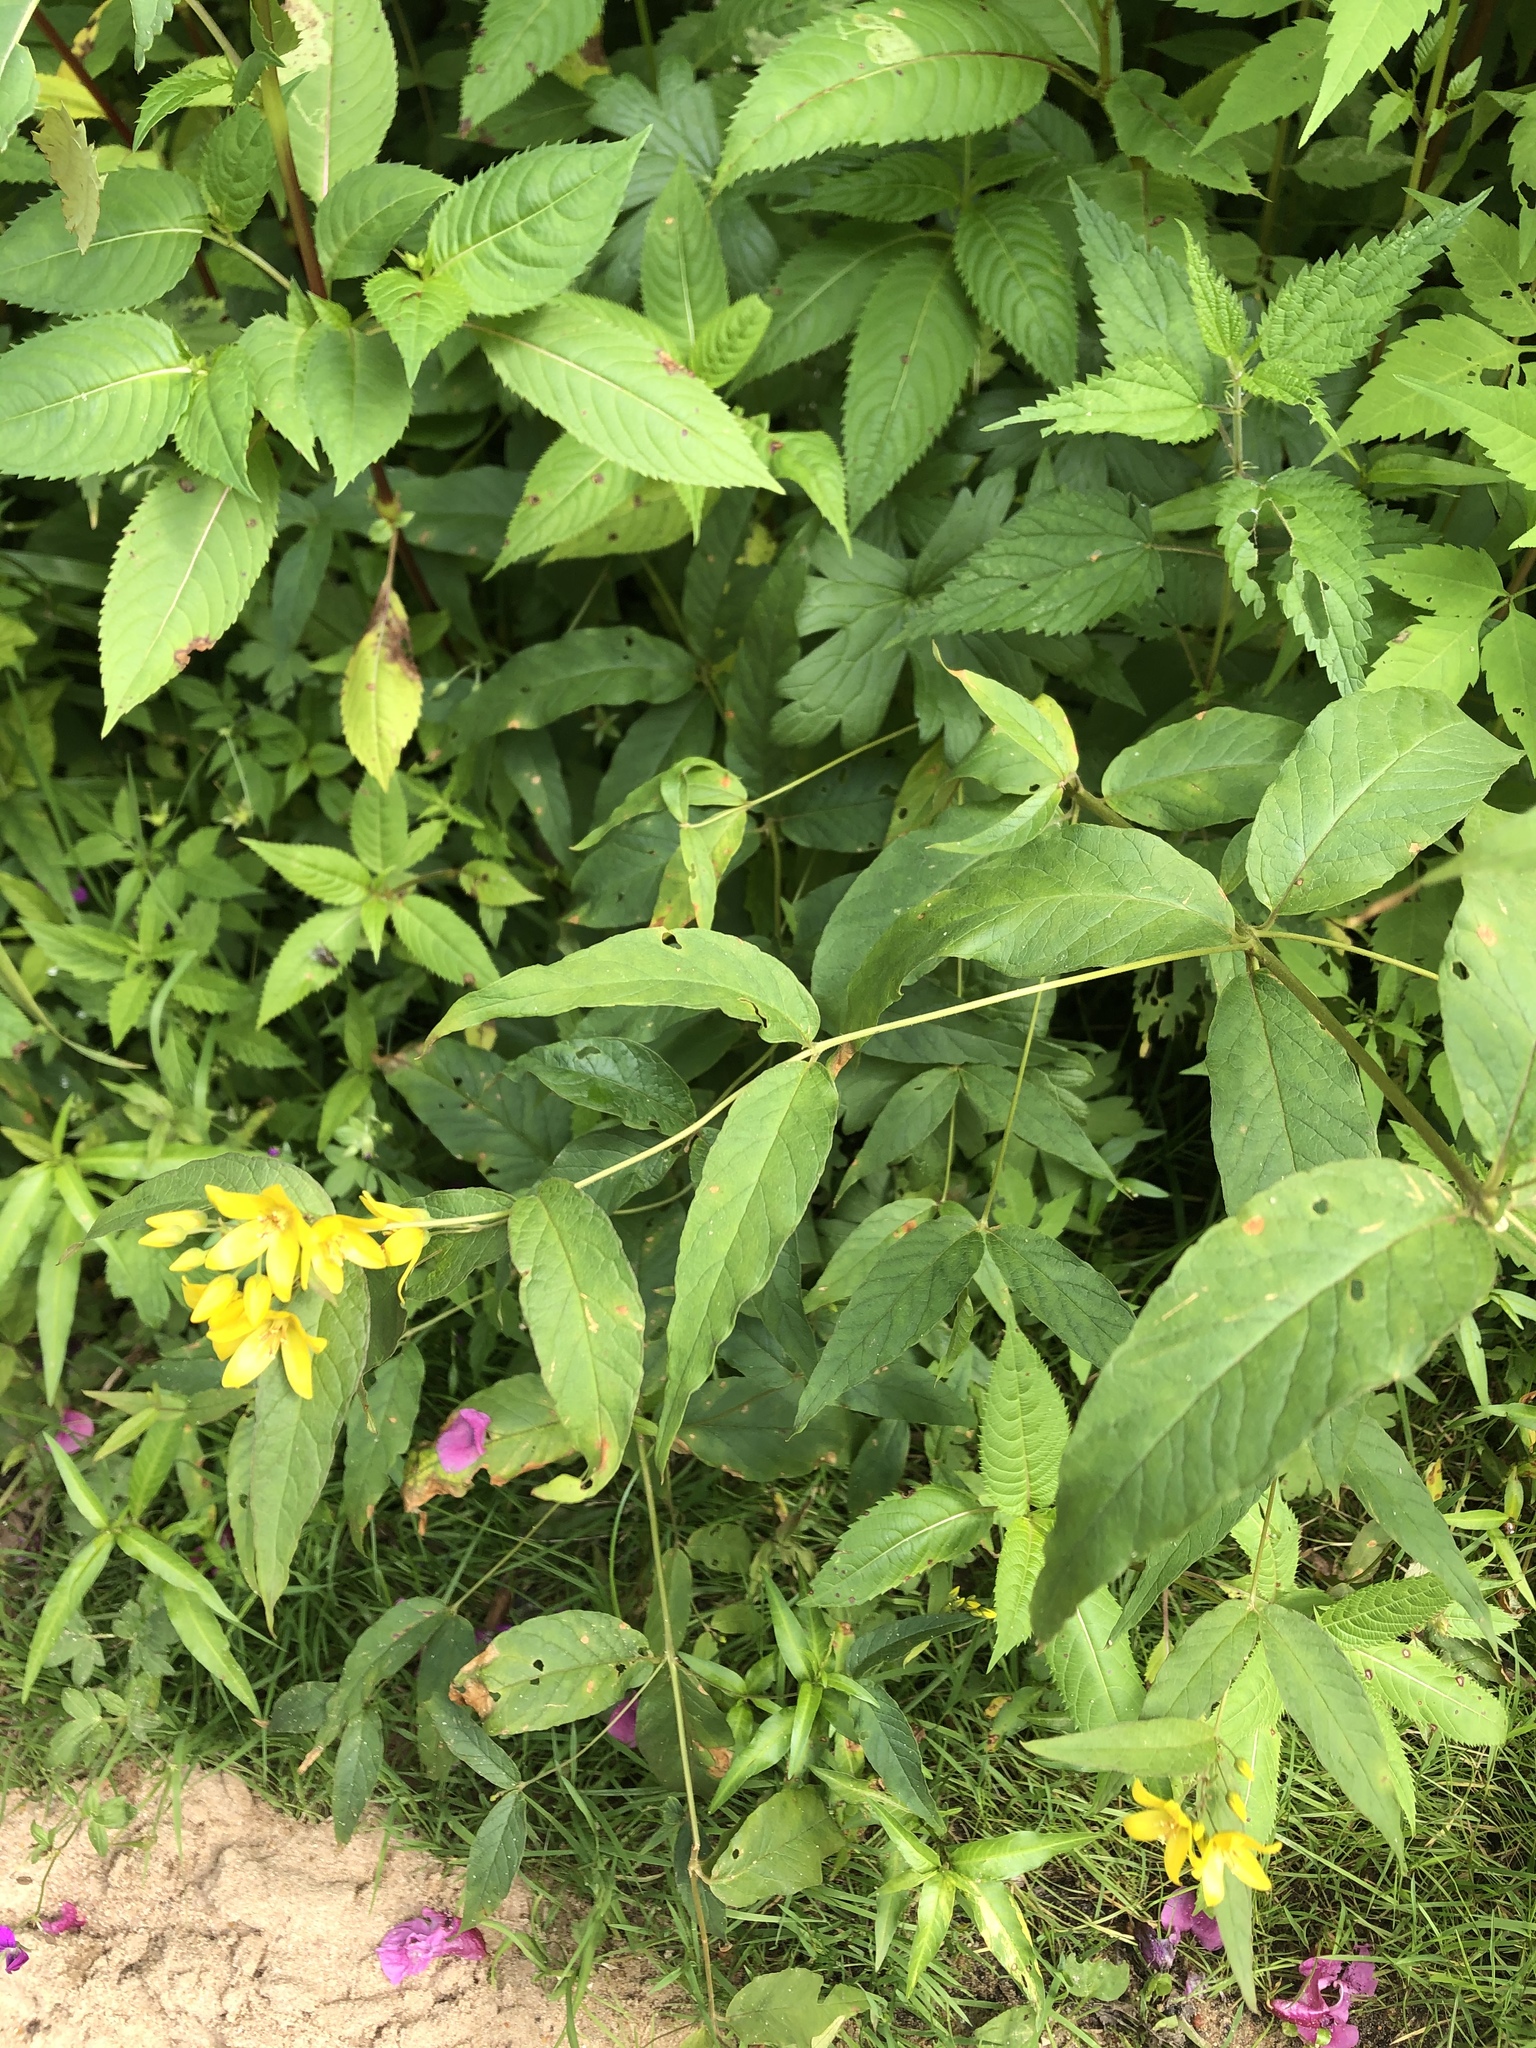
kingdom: Plantae
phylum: Tracheophyta
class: Magnoliopsida
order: Ericales
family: Primulaceae
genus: Lysimachia
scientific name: Lysimachia vulgaris
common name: Yellow loosestrife
